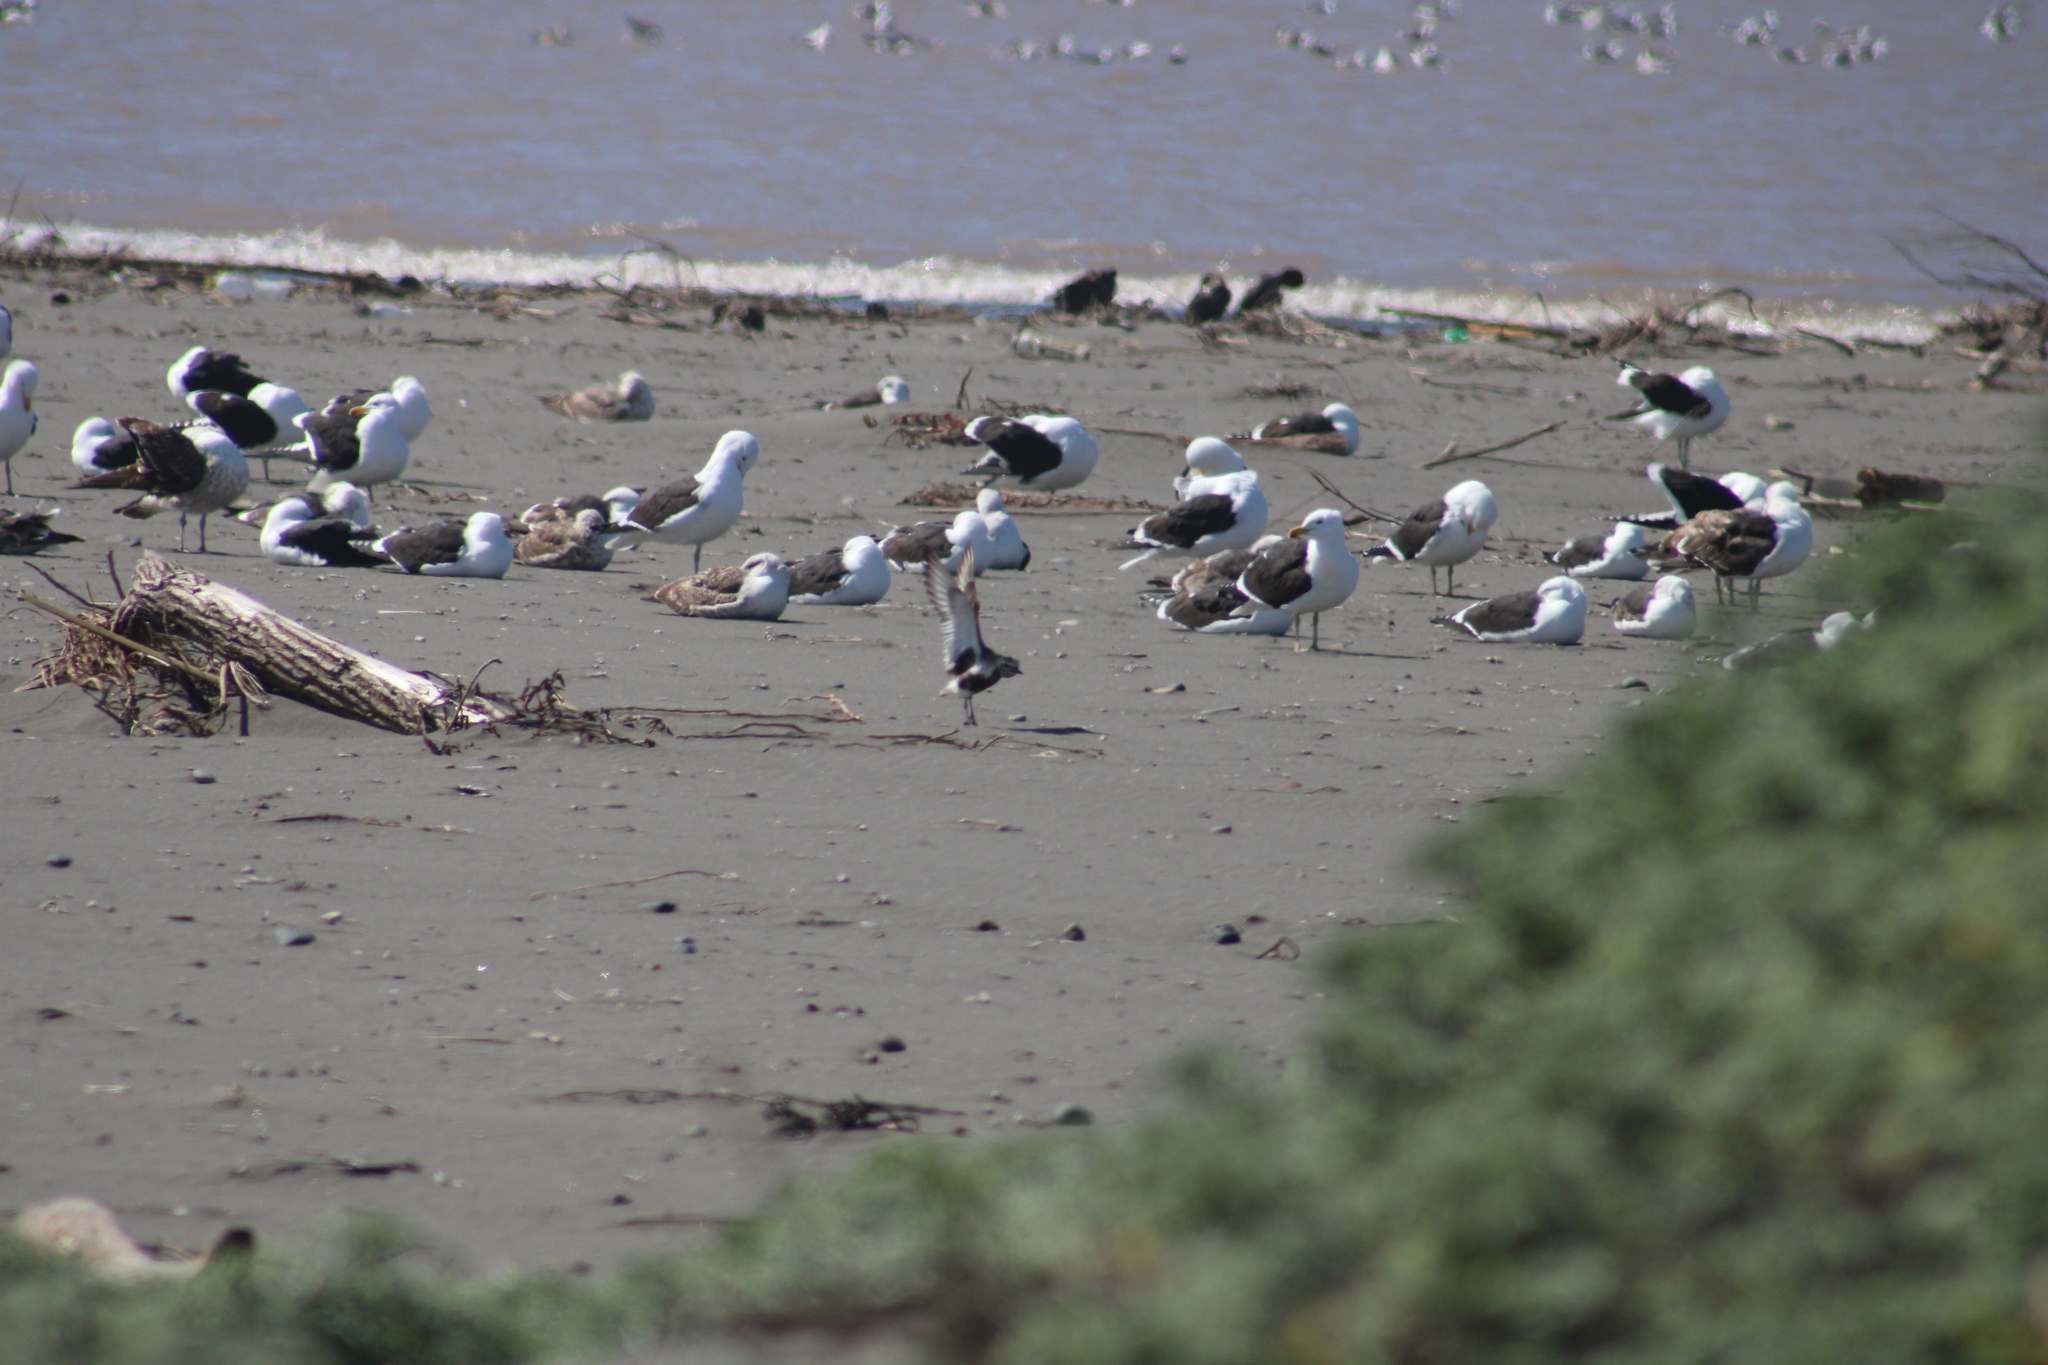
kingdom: Animalia
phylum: Chordata
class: Aves
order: Charadriiformes
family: Charadriidae
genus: Pluvialis
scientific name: Pluvialis squatarola
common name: Grey plover
